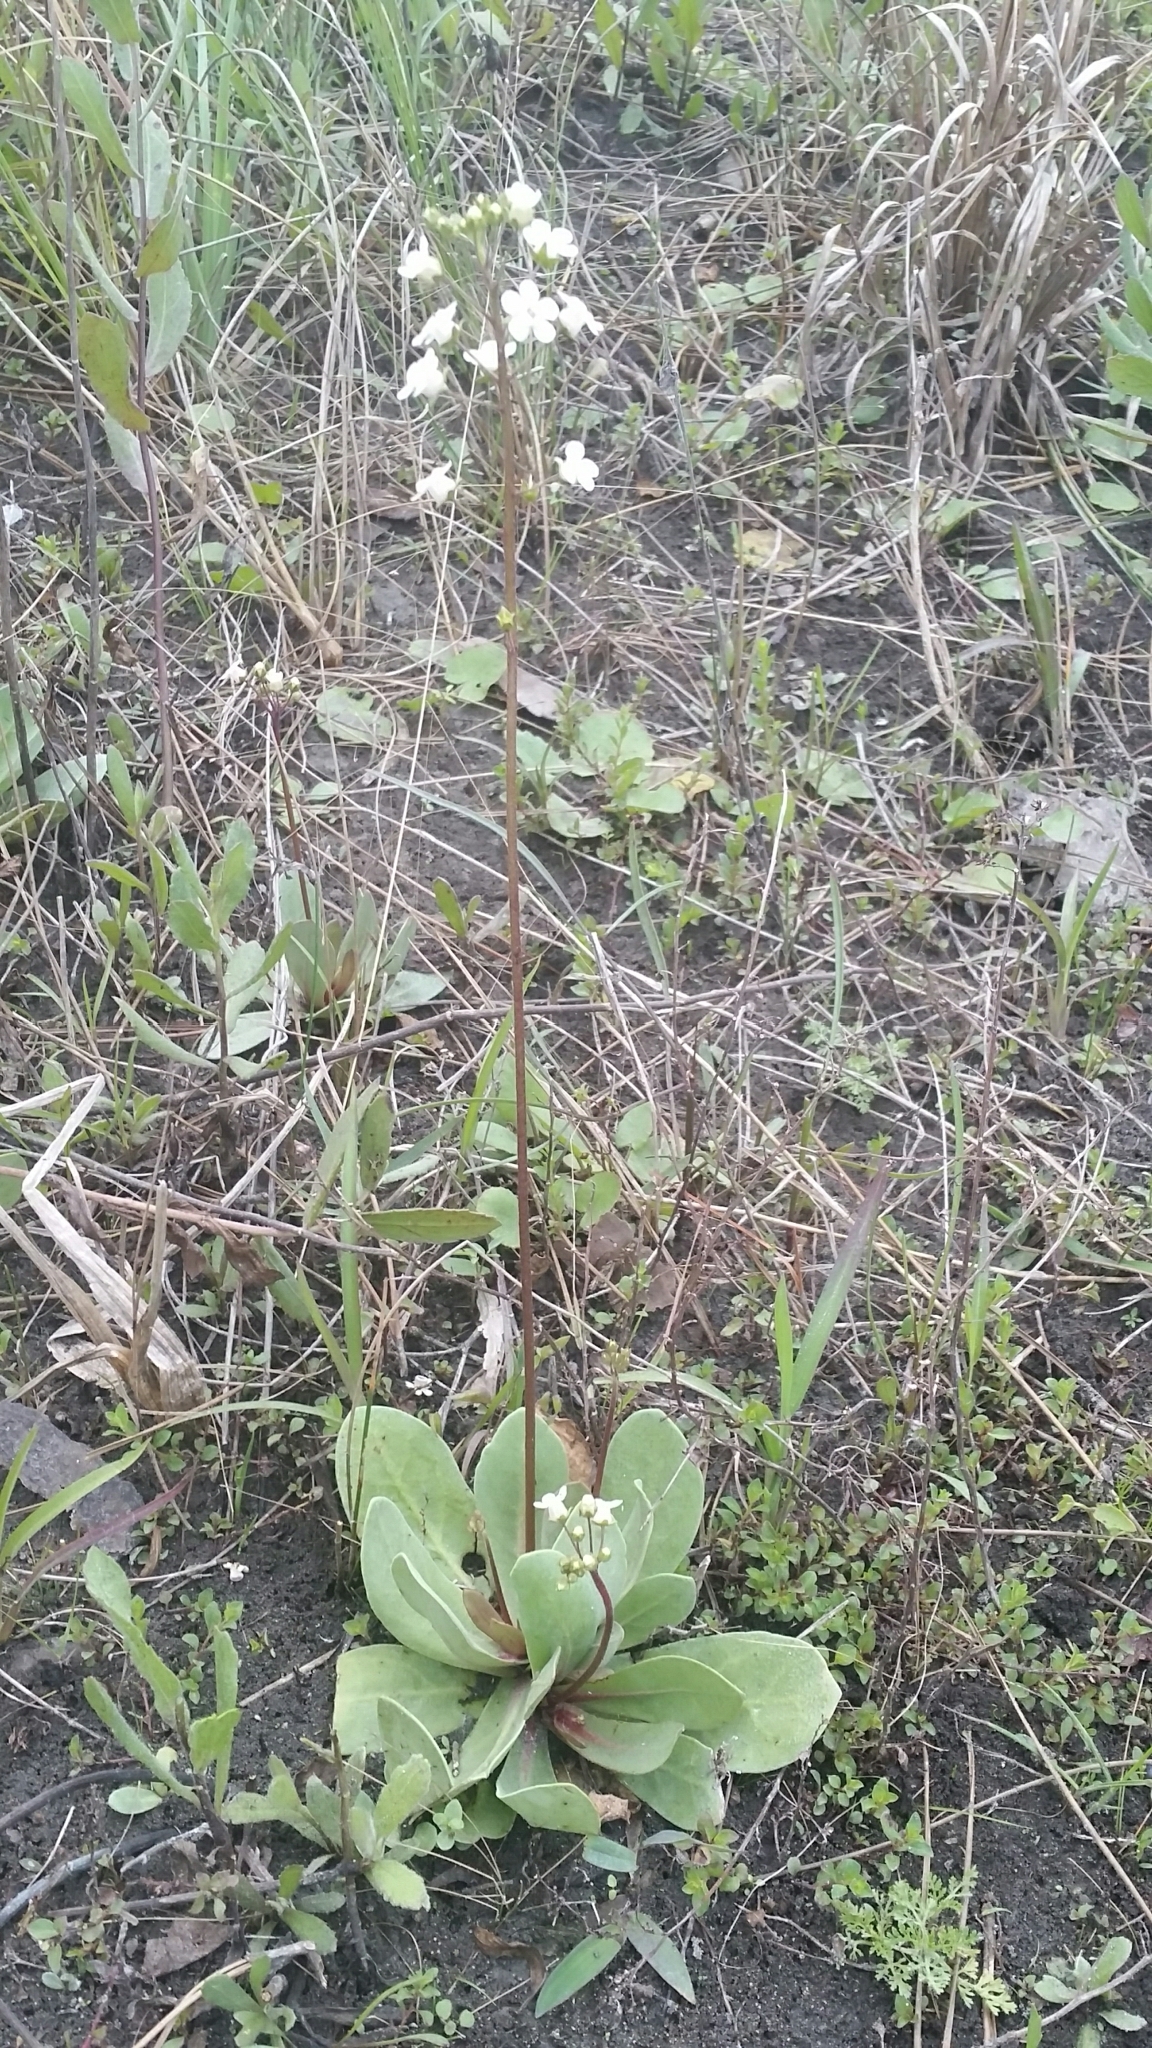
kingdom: Plantae
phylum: Tracheophyta
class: Magnoliopsida
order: Ericales
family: Primulaceae
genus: Samolus
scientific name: Samolus ebracteatus
